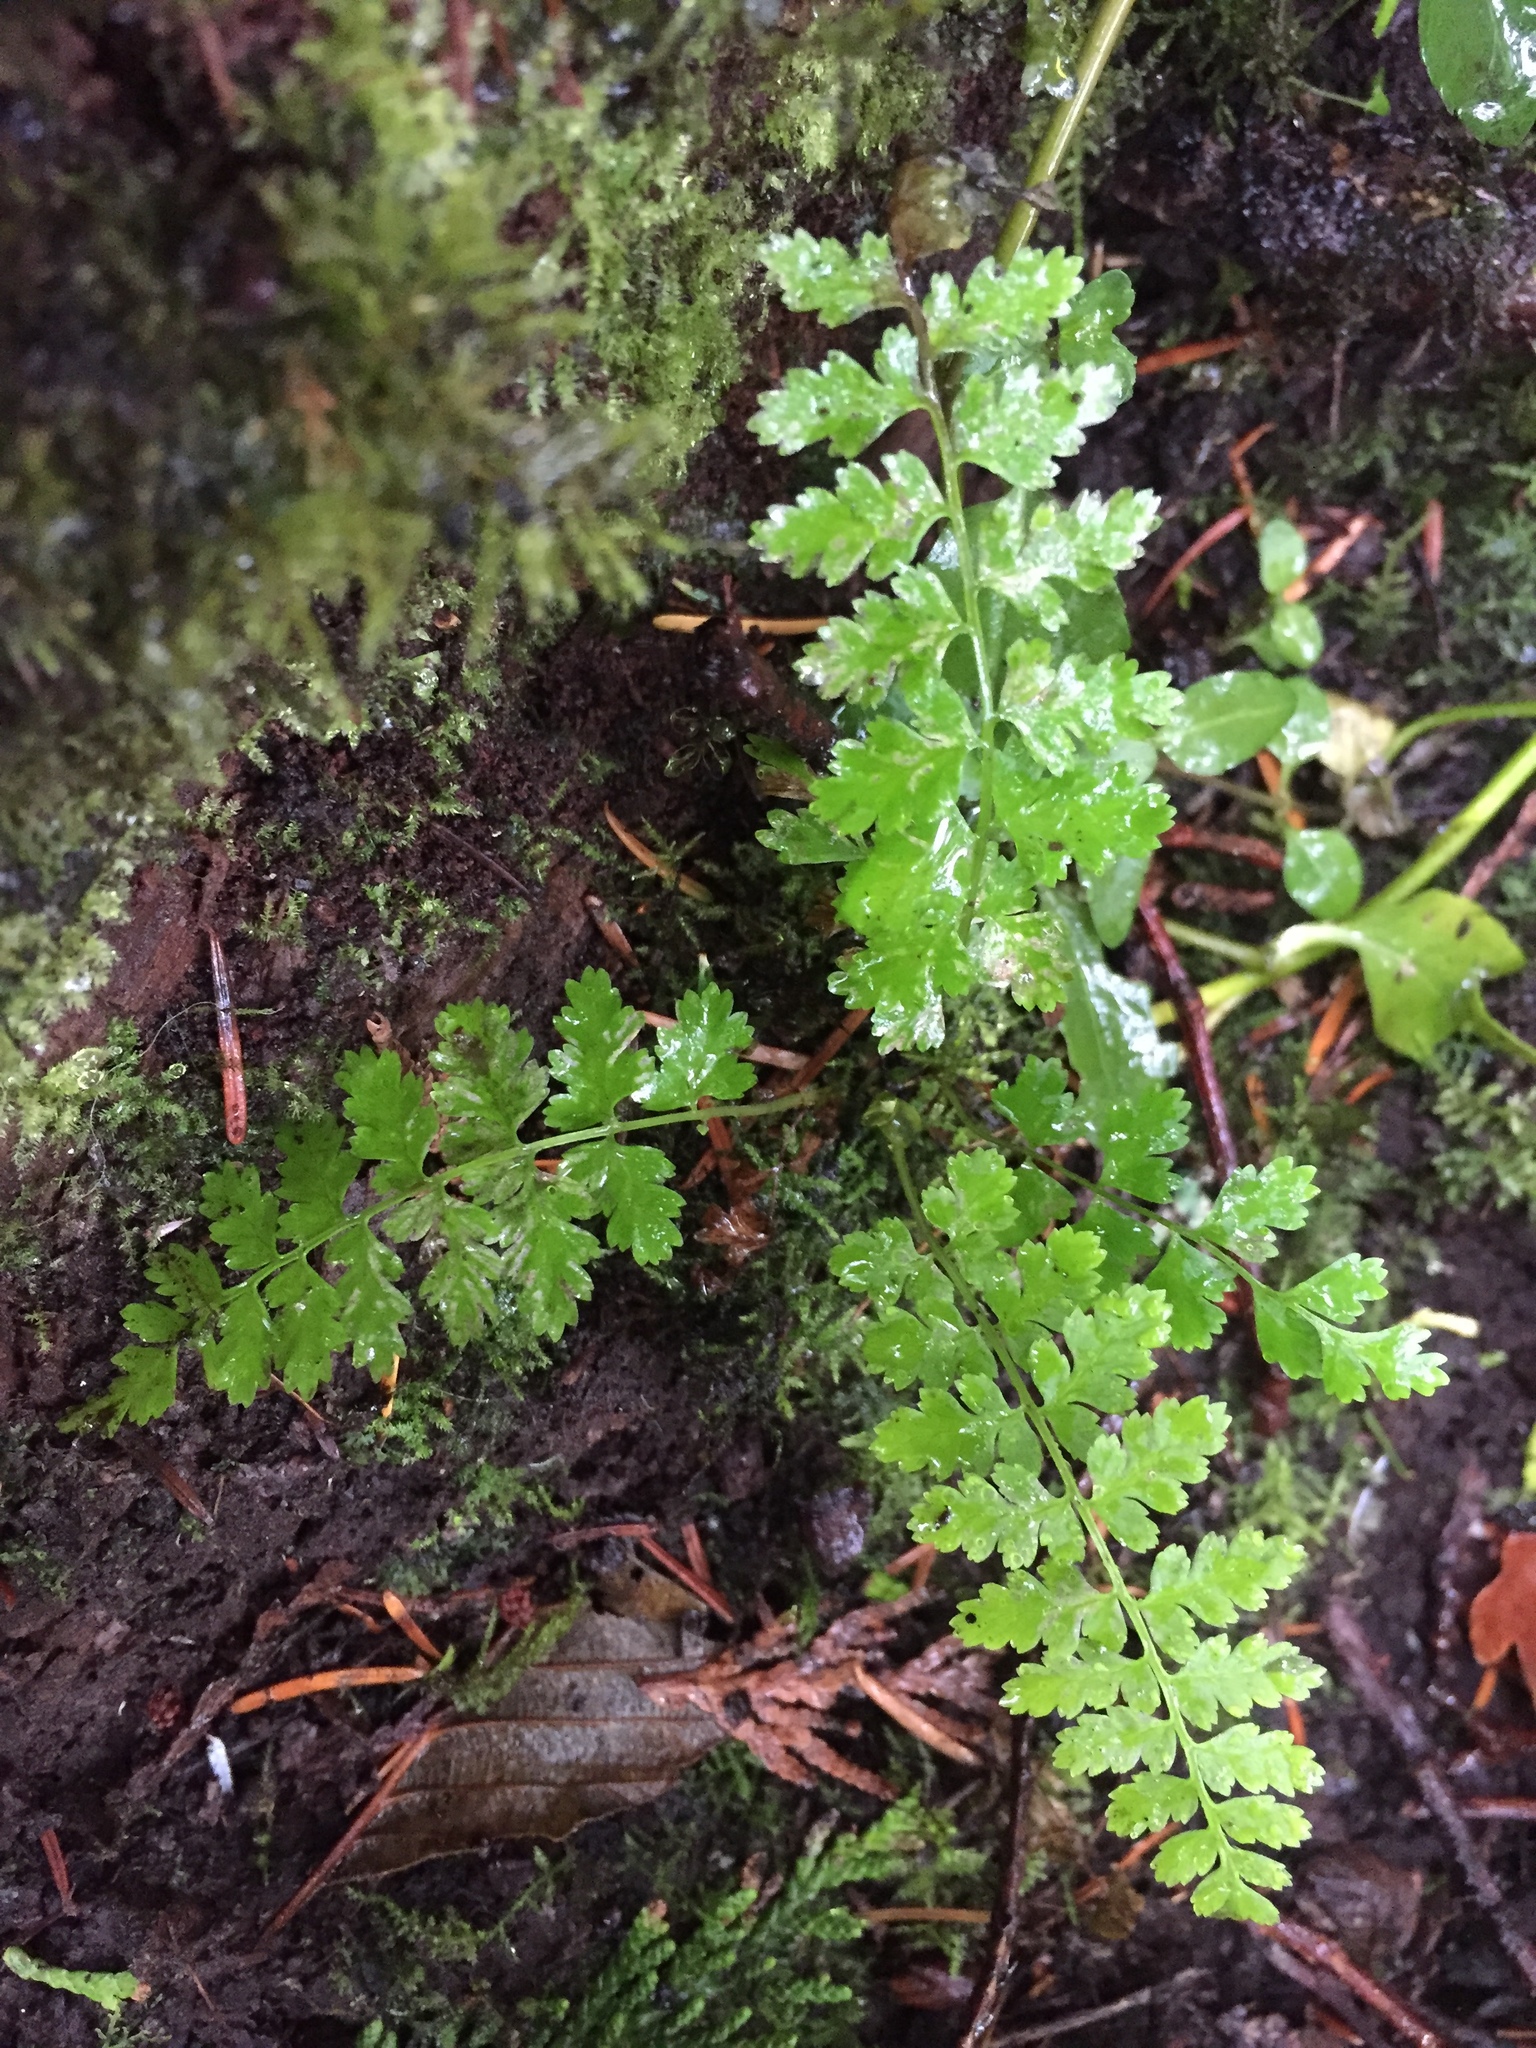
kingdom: Plantae
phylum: Tracheophyta
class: Polypodiopsida
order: Polypodiales
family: Athyriaceae
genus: Athyrium
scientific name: Athyrium filix-femina
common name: Lady fern
